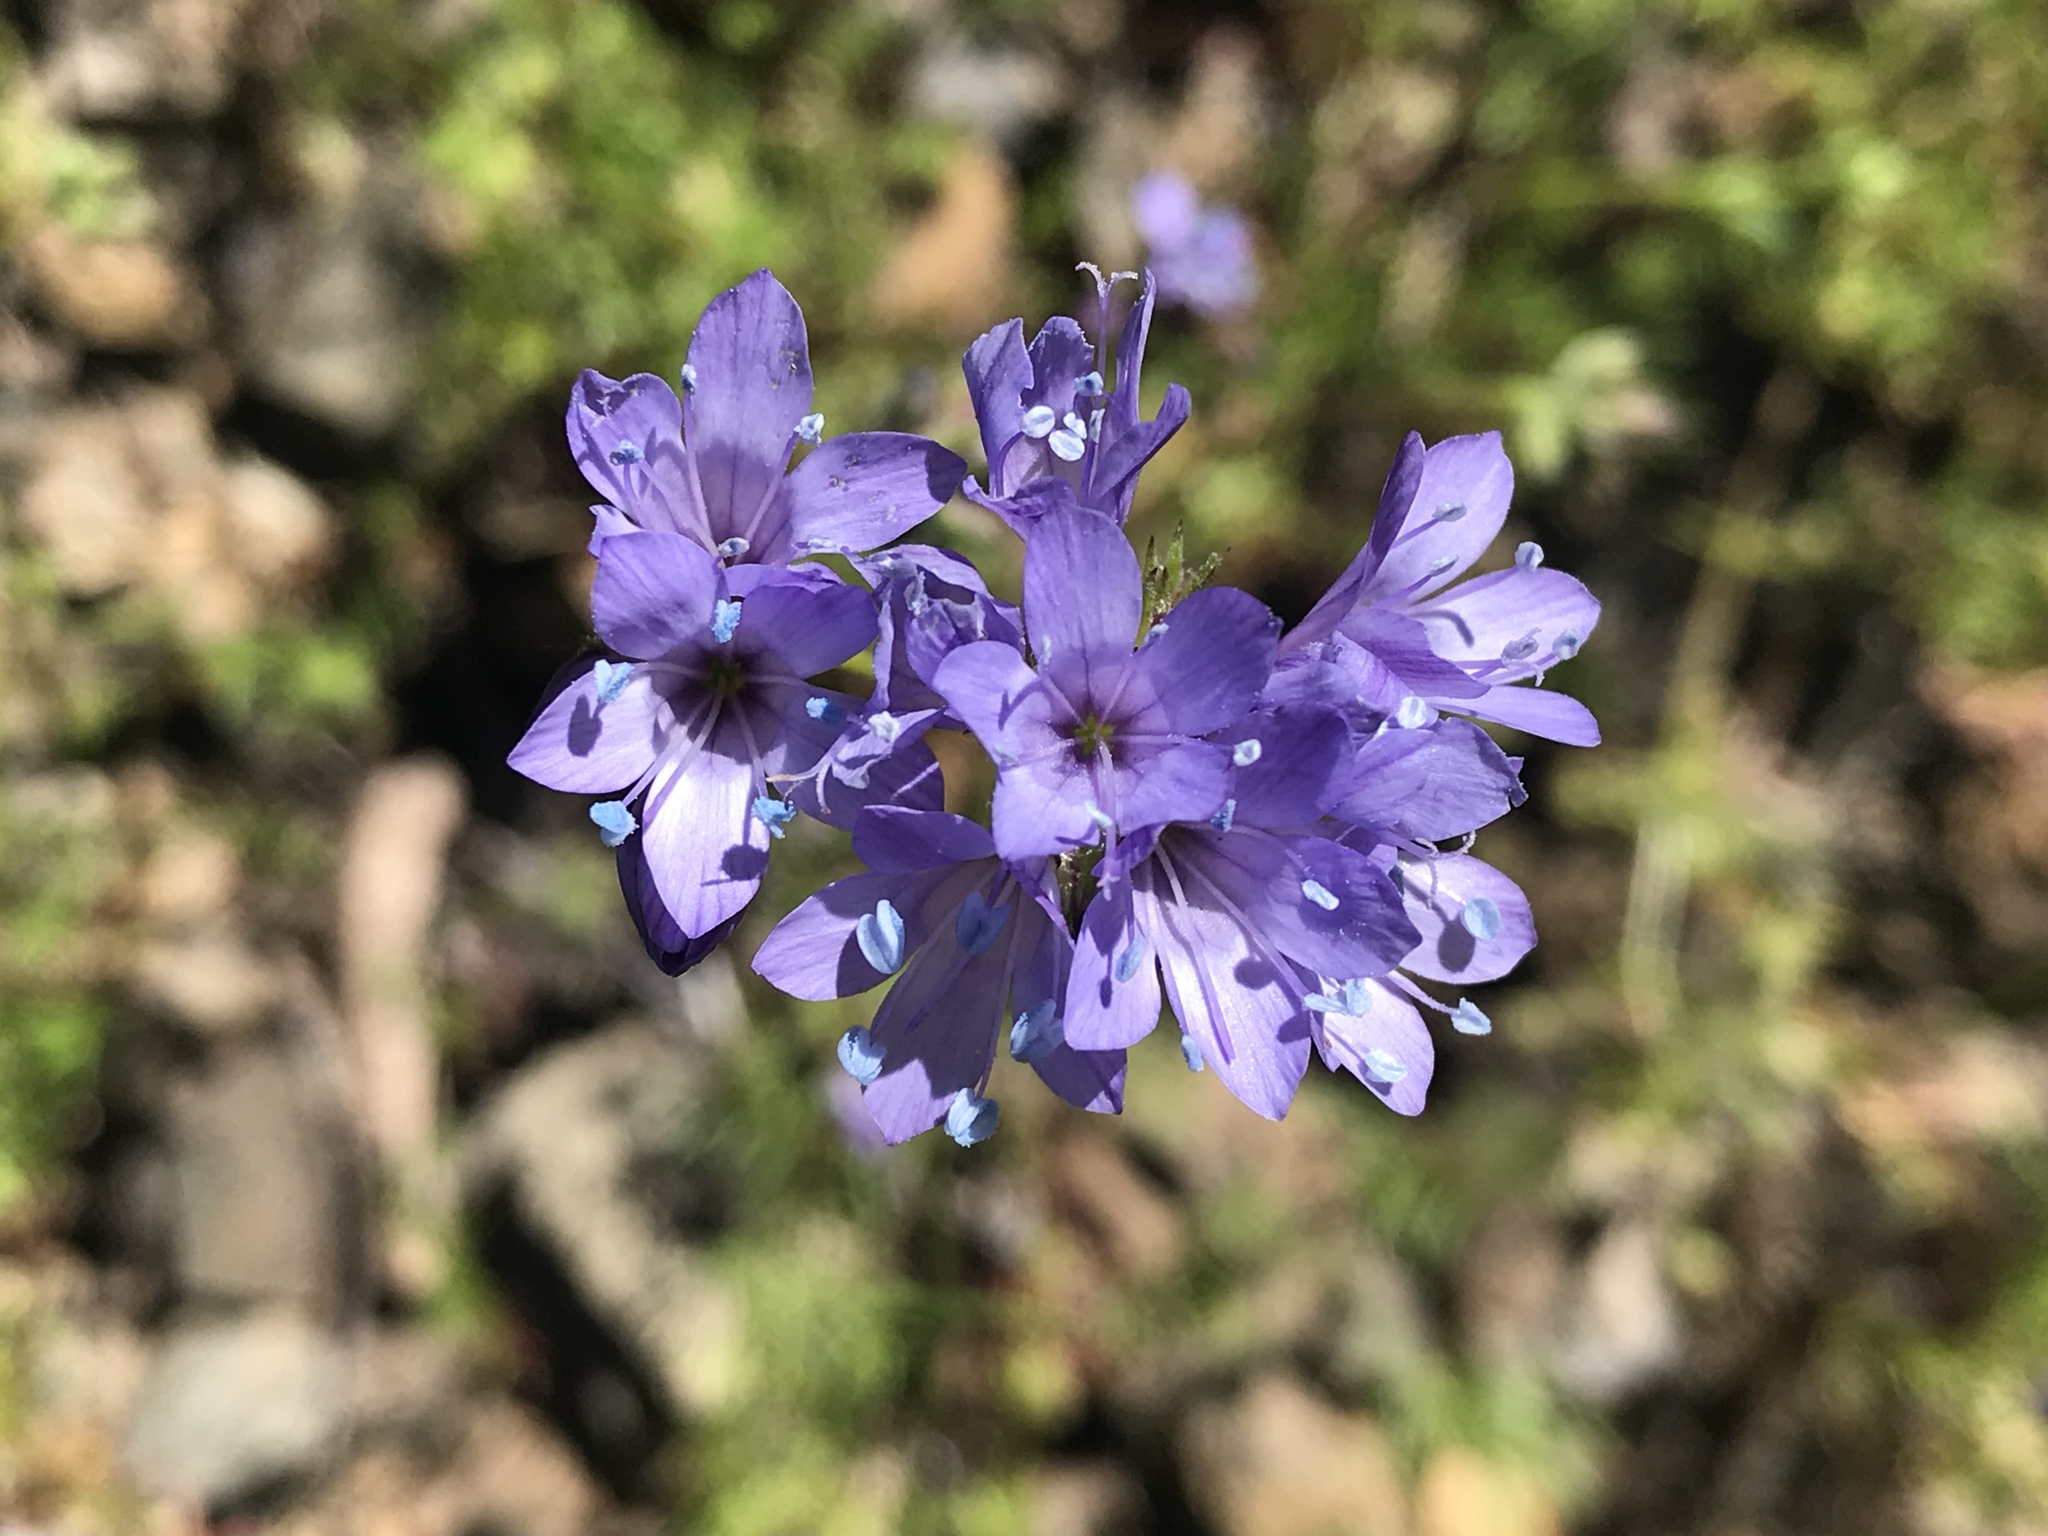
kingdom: Plantae
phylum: Tracheophyta
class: Magnoliopsida
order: Ericales
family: Polemoniaceae
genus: Gilia
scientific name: Gilia achilleifolia
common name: California gily-flower
